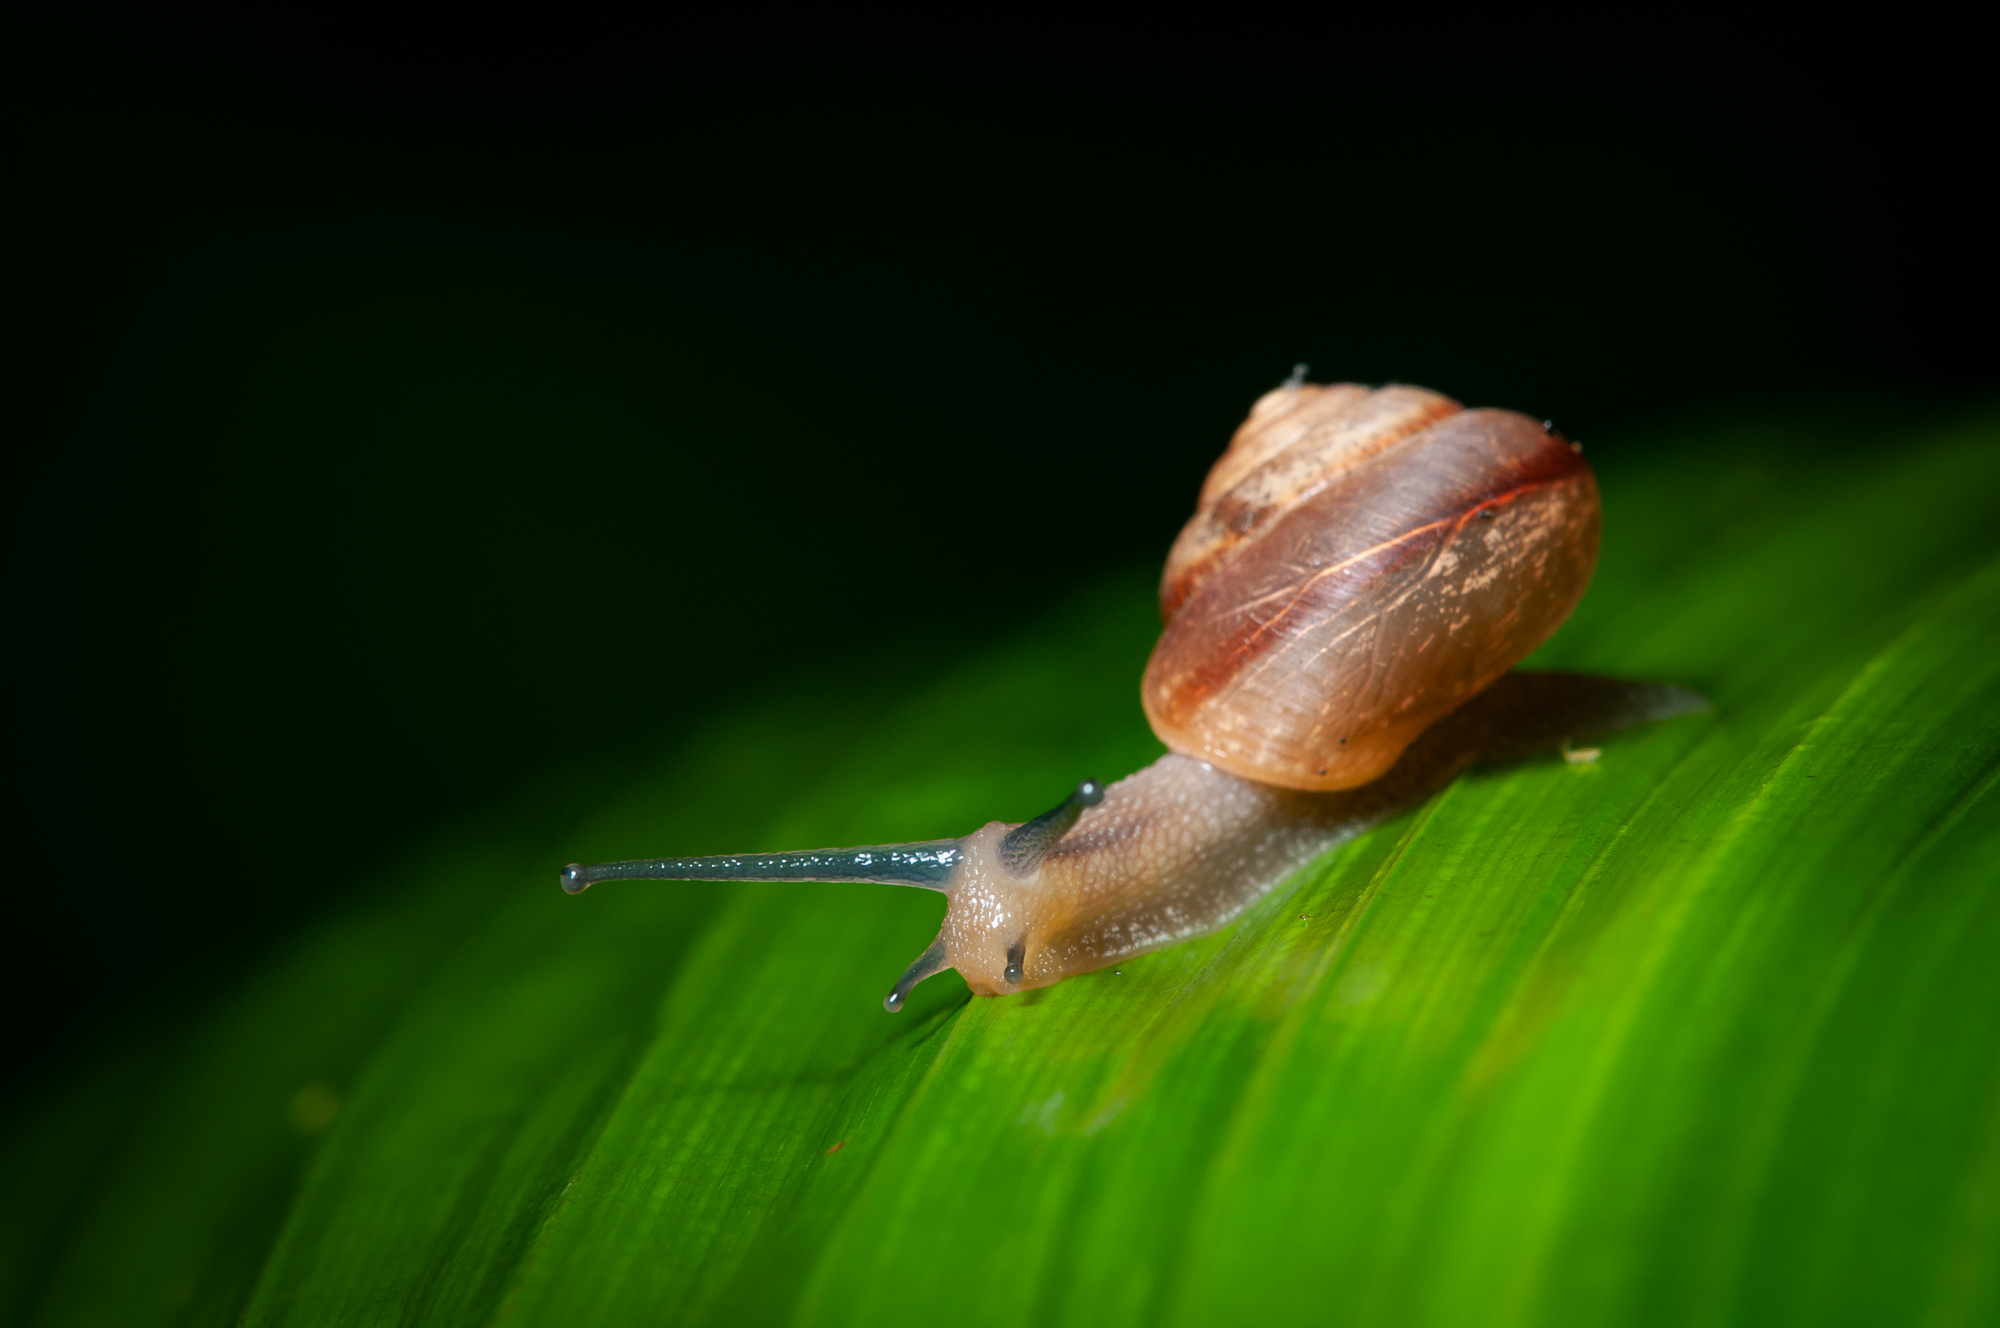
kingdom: Animalia
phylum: Mollusca
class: Gastropoda
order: Stylommatophora
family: Camaenidae
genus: Bradybaena
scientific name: Bradybaena similaris
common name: Asian trampsnail
